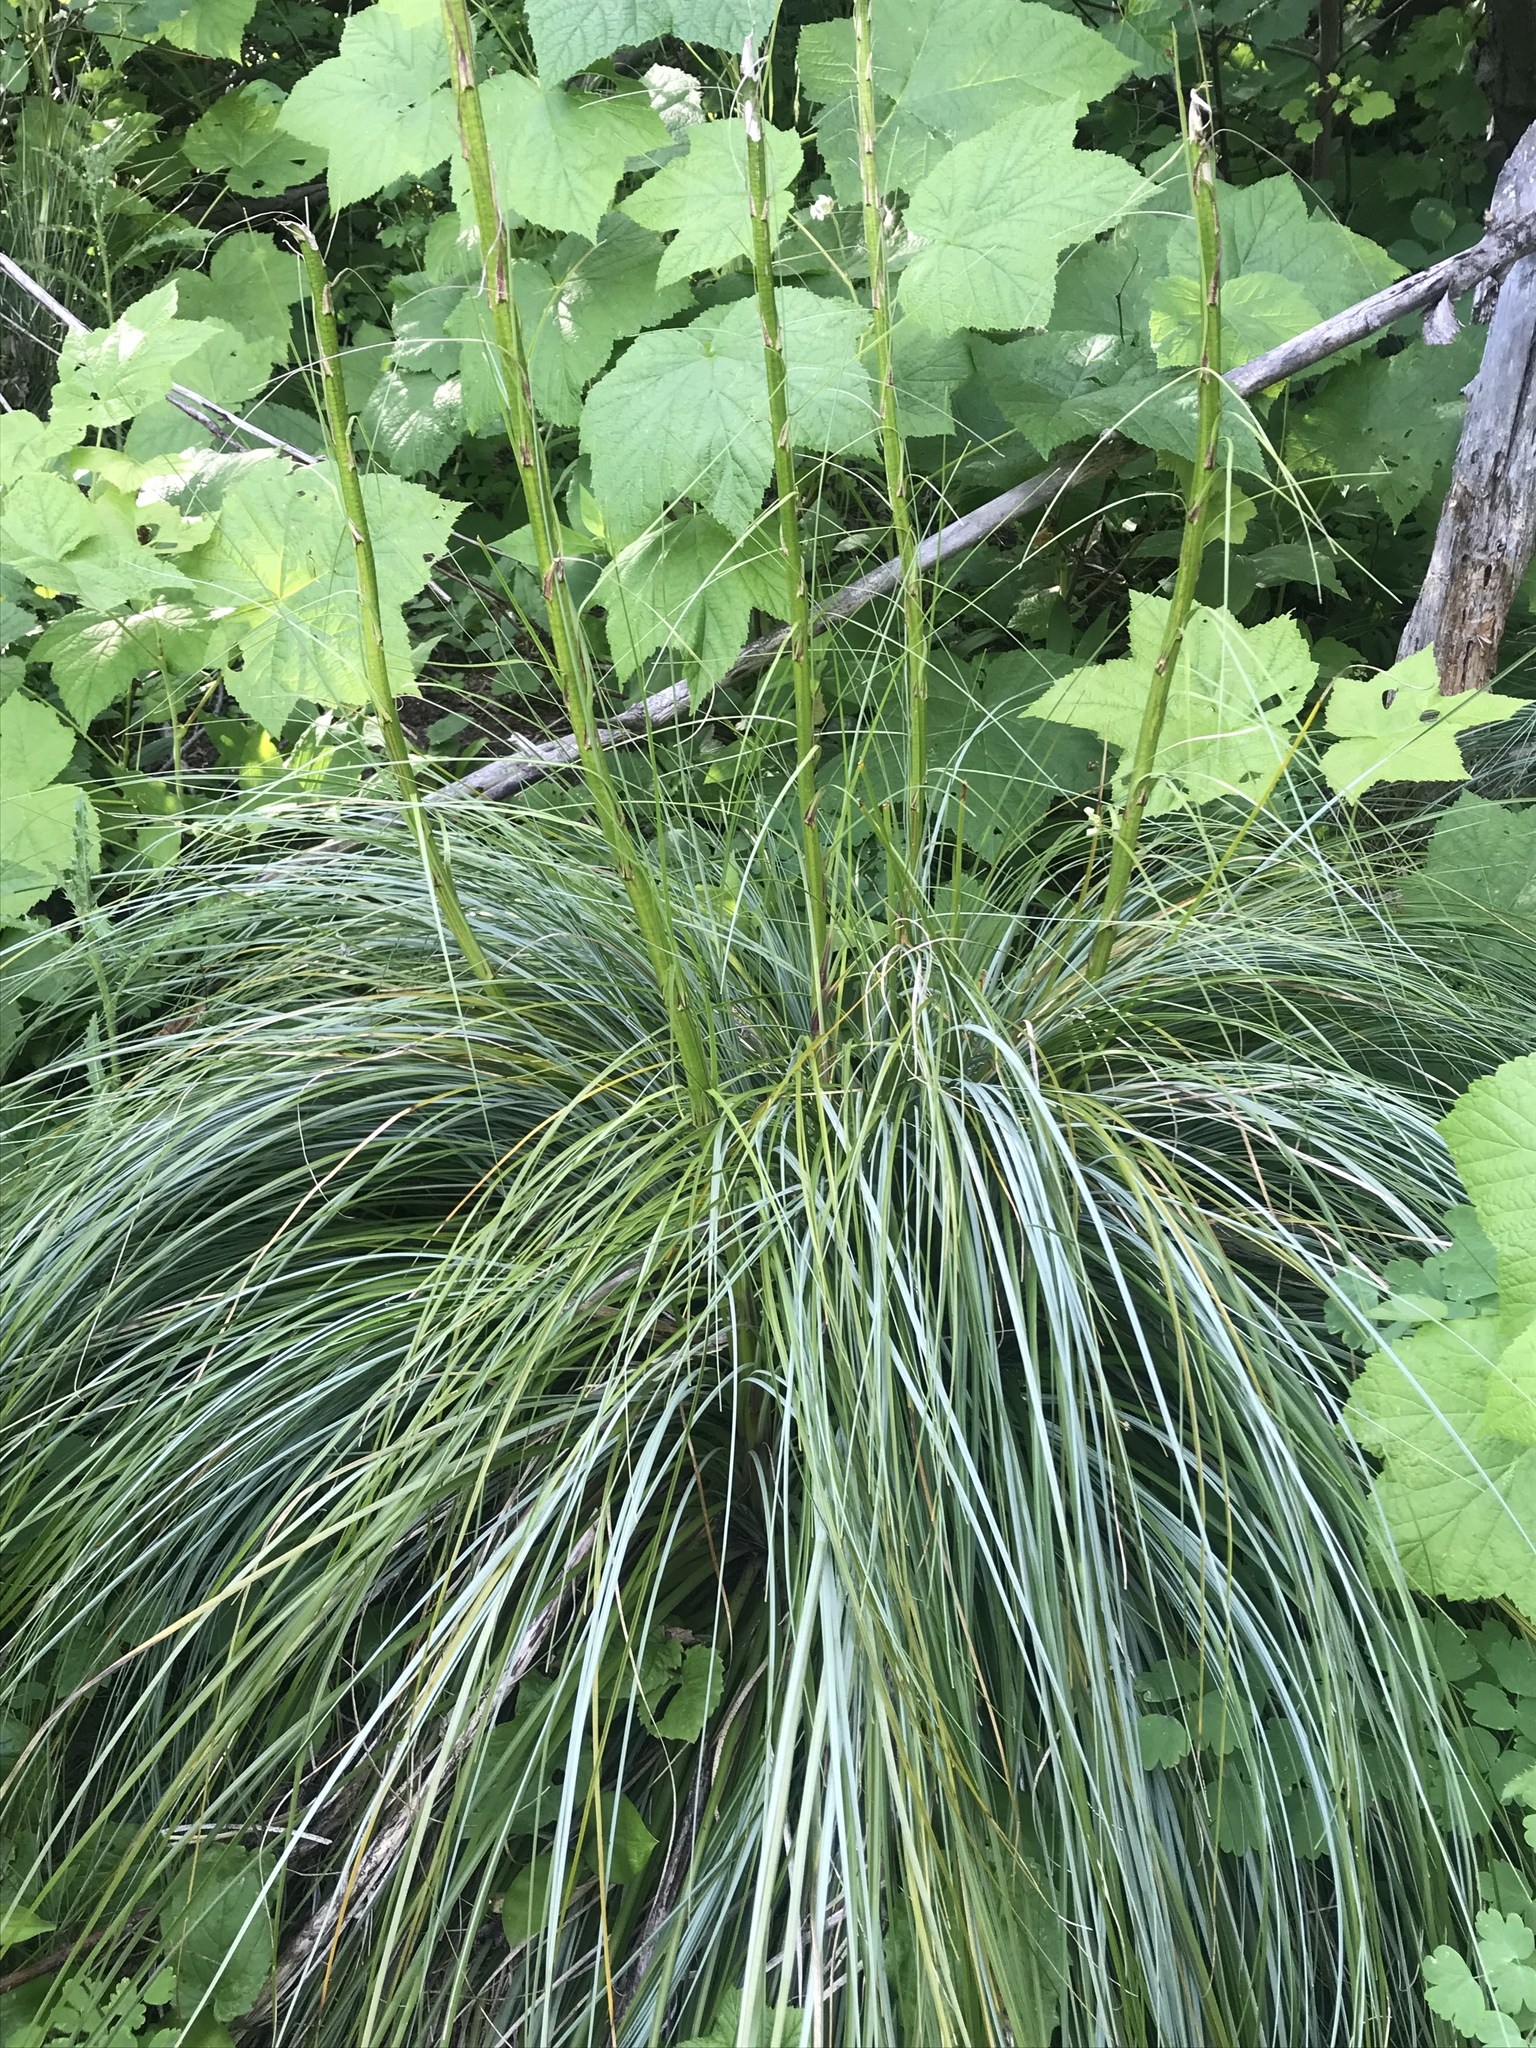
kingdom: Plantae
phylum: Tracheophyta
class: Liliopsida
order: Liliales
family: Melanthiaceae
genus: Xerophyllum
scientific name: Xerophyllum tenax
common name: Bear-grass
